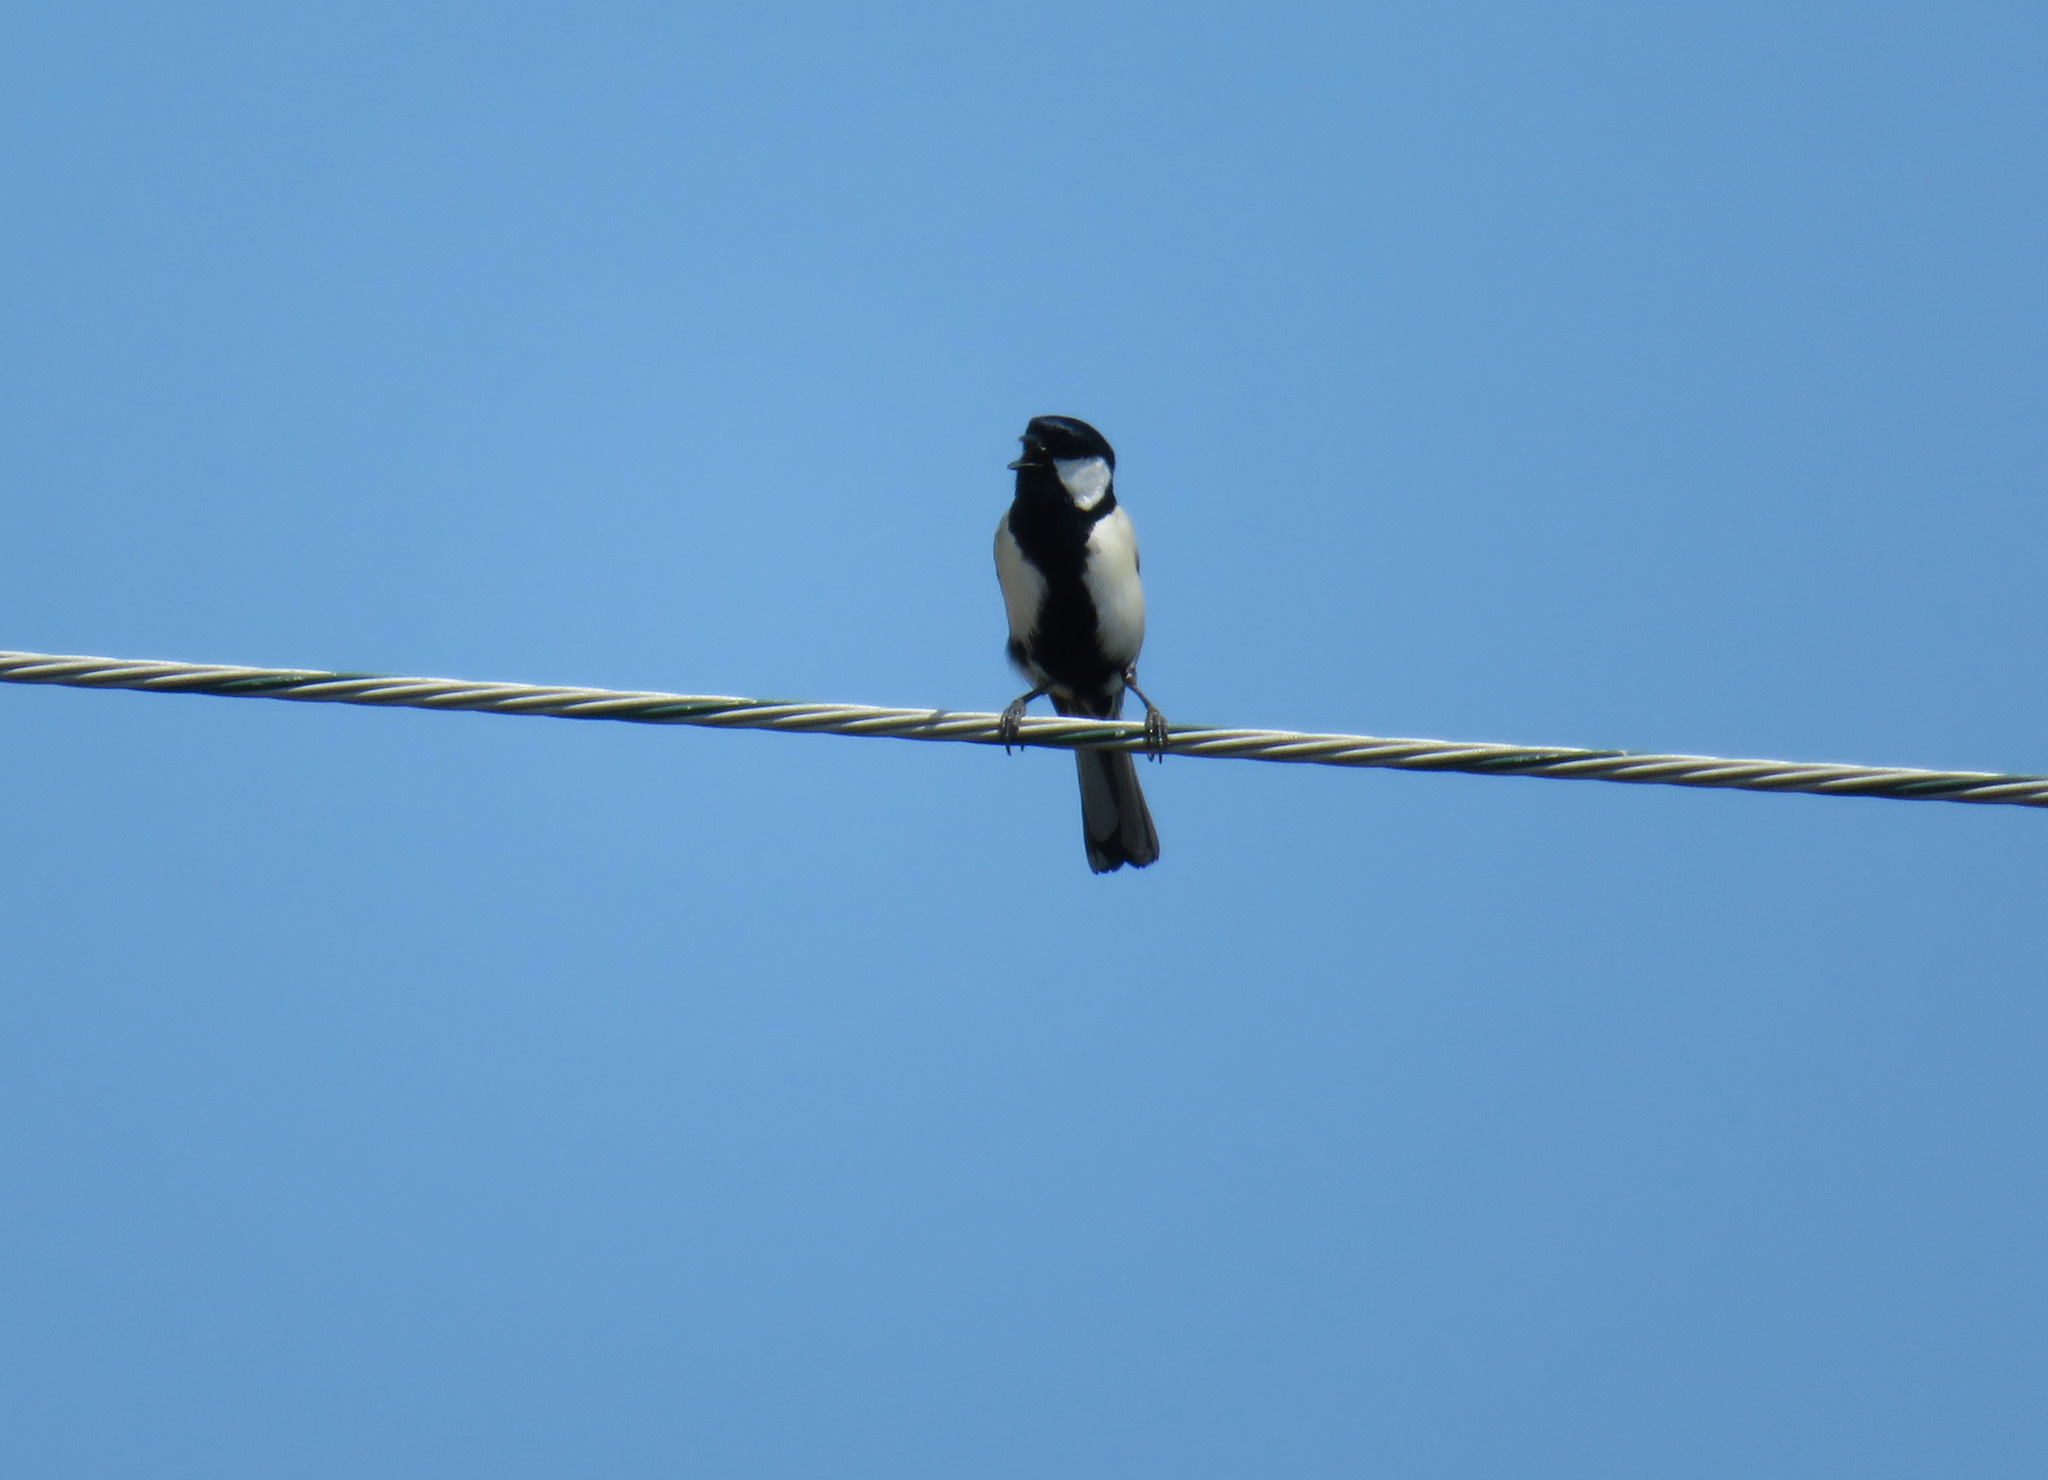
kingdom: Animalia
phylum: Chordata
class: Aves
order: Passeriformes
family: Paridae
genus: Parus
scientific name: Parus minor
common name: Japanese tit
